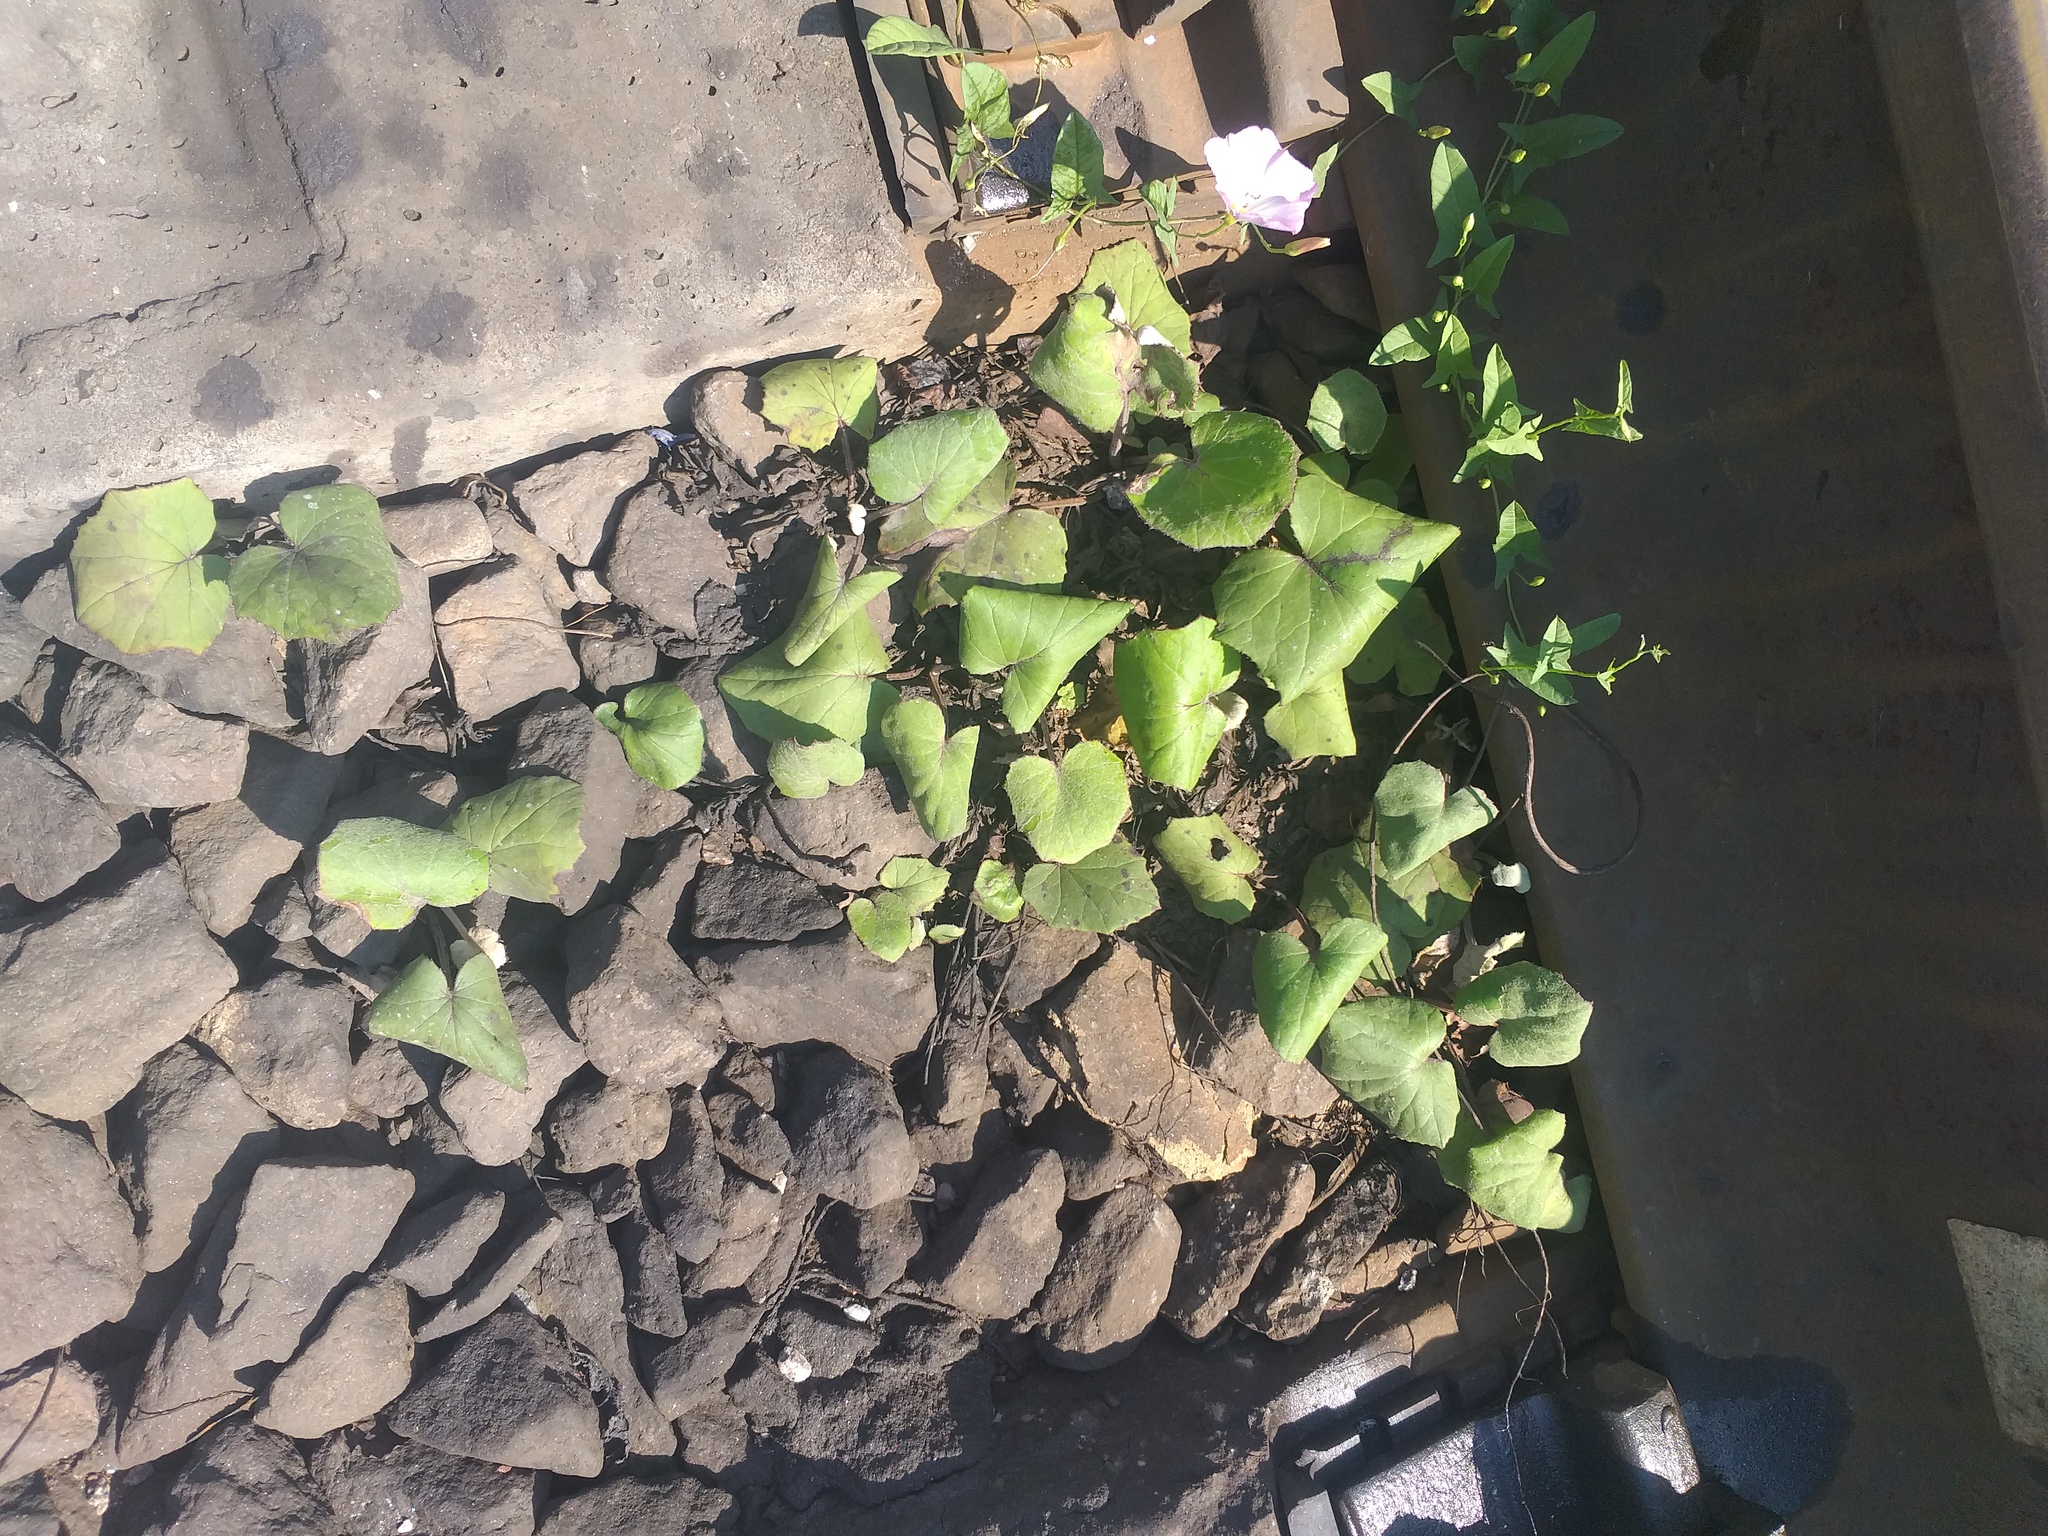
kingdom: Plantae
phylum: Tracheophyta
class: Magnoliopsida
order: Asterales
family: Asteraceae
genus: Tussilago
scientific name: Tussilago farfara
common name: Coltsfoot
